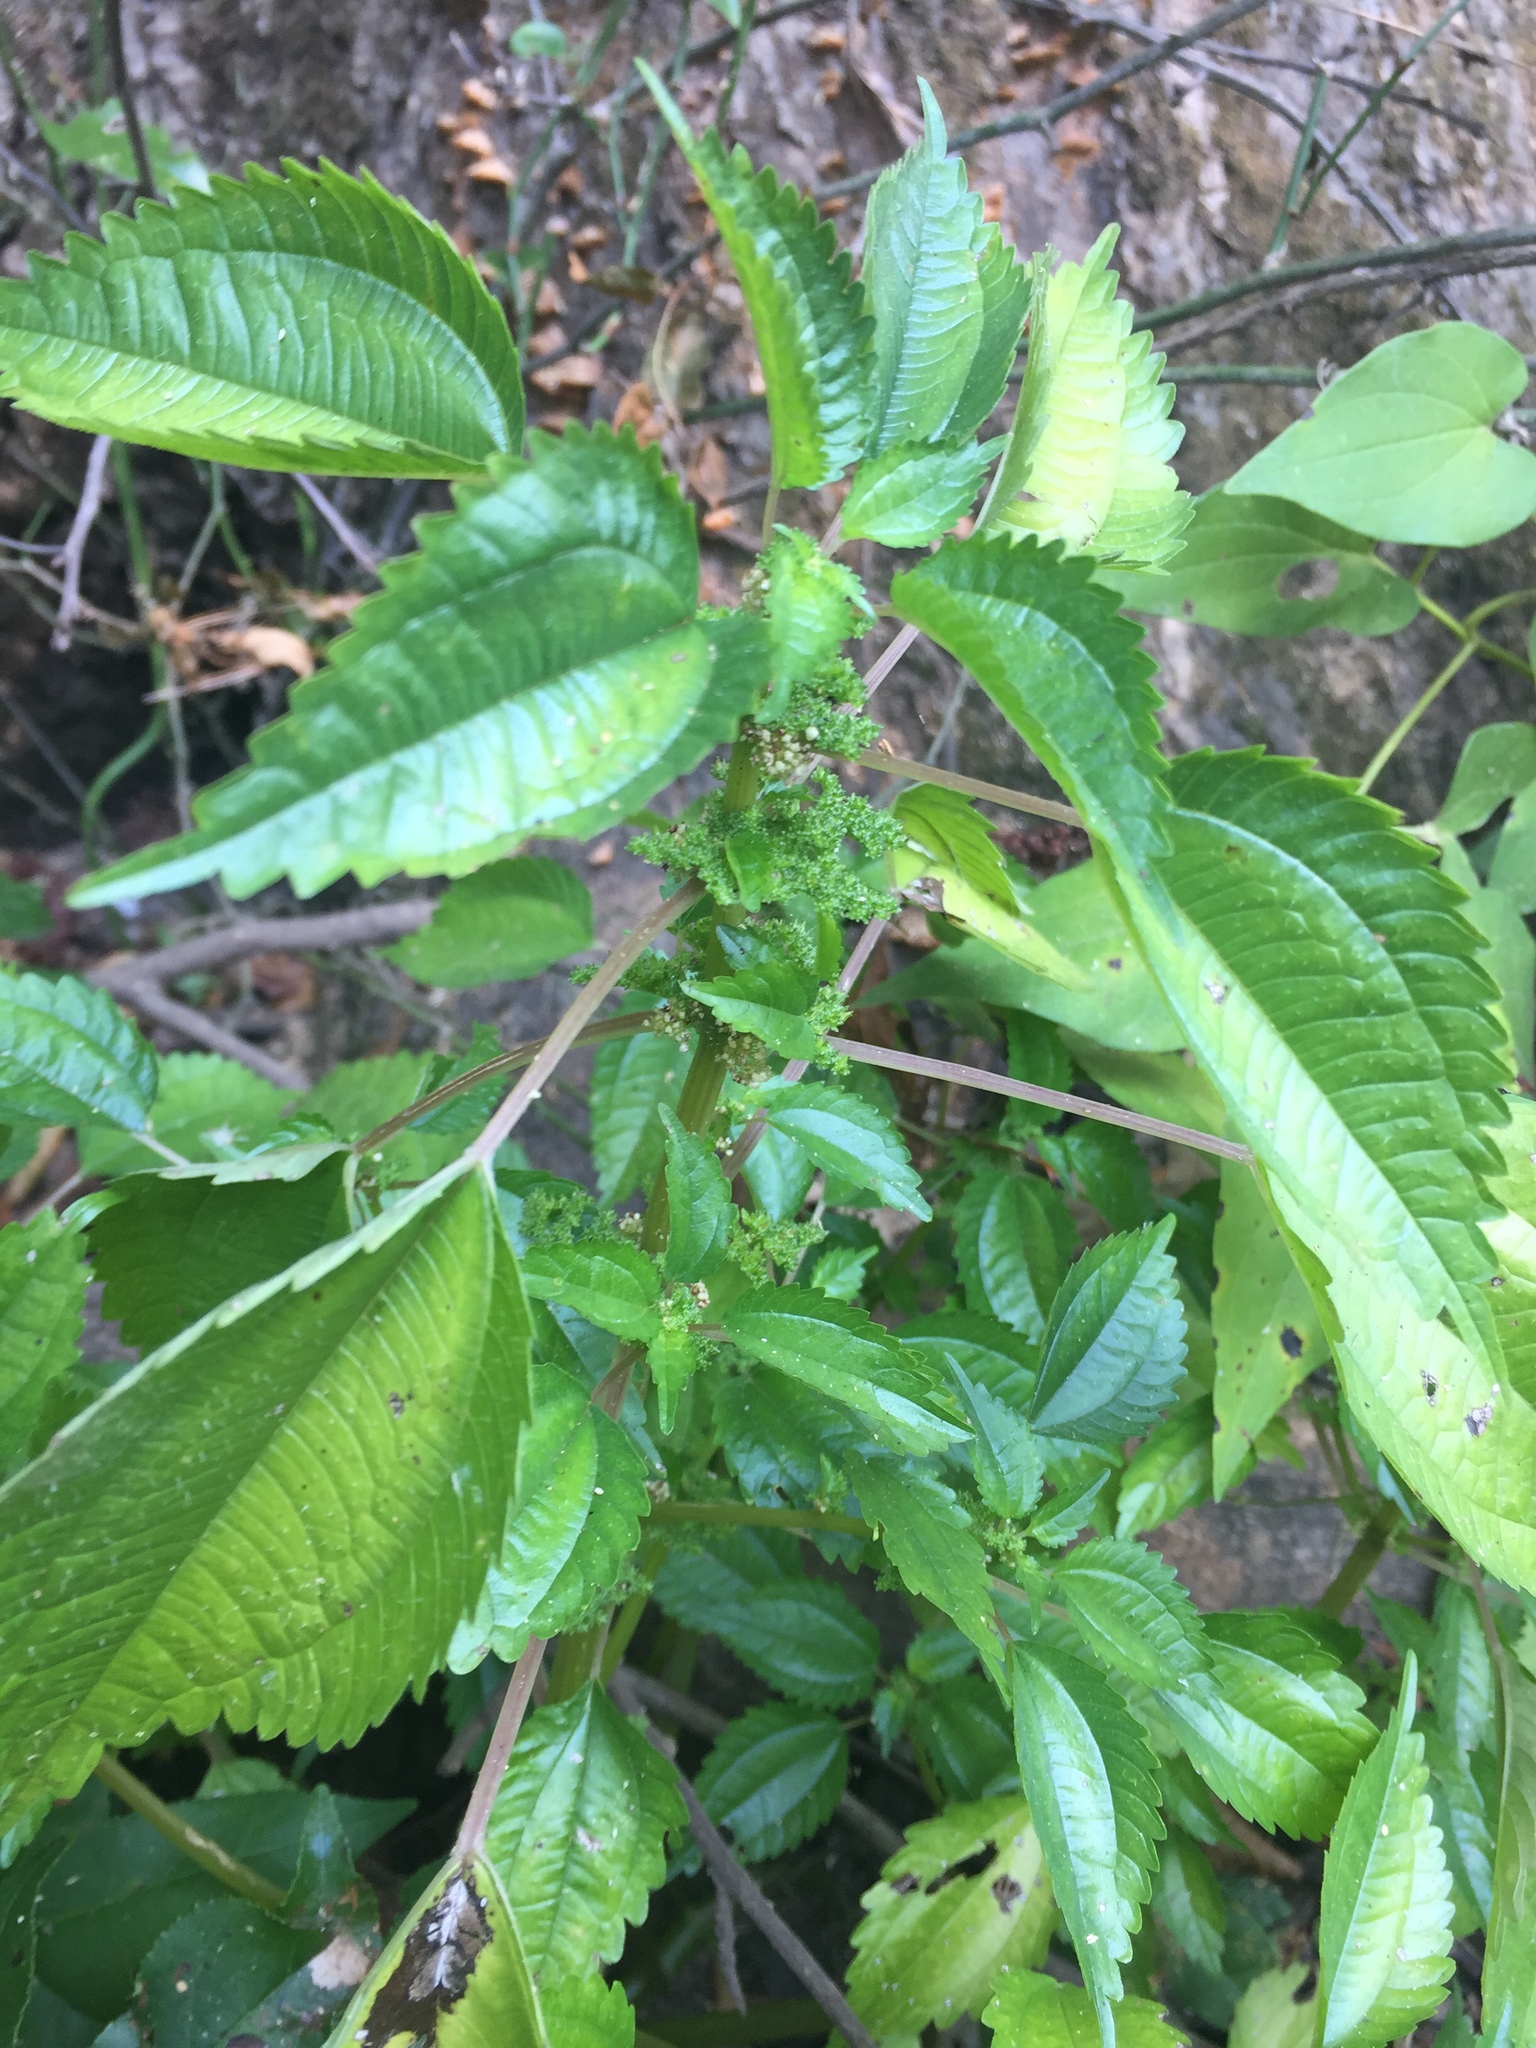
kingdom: Plantae
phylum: Tracheophyta
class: Magnoliopsida
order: Rosales
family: Urticaceae
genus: Pilea
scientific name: Pilea pumila
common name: Clearweed
